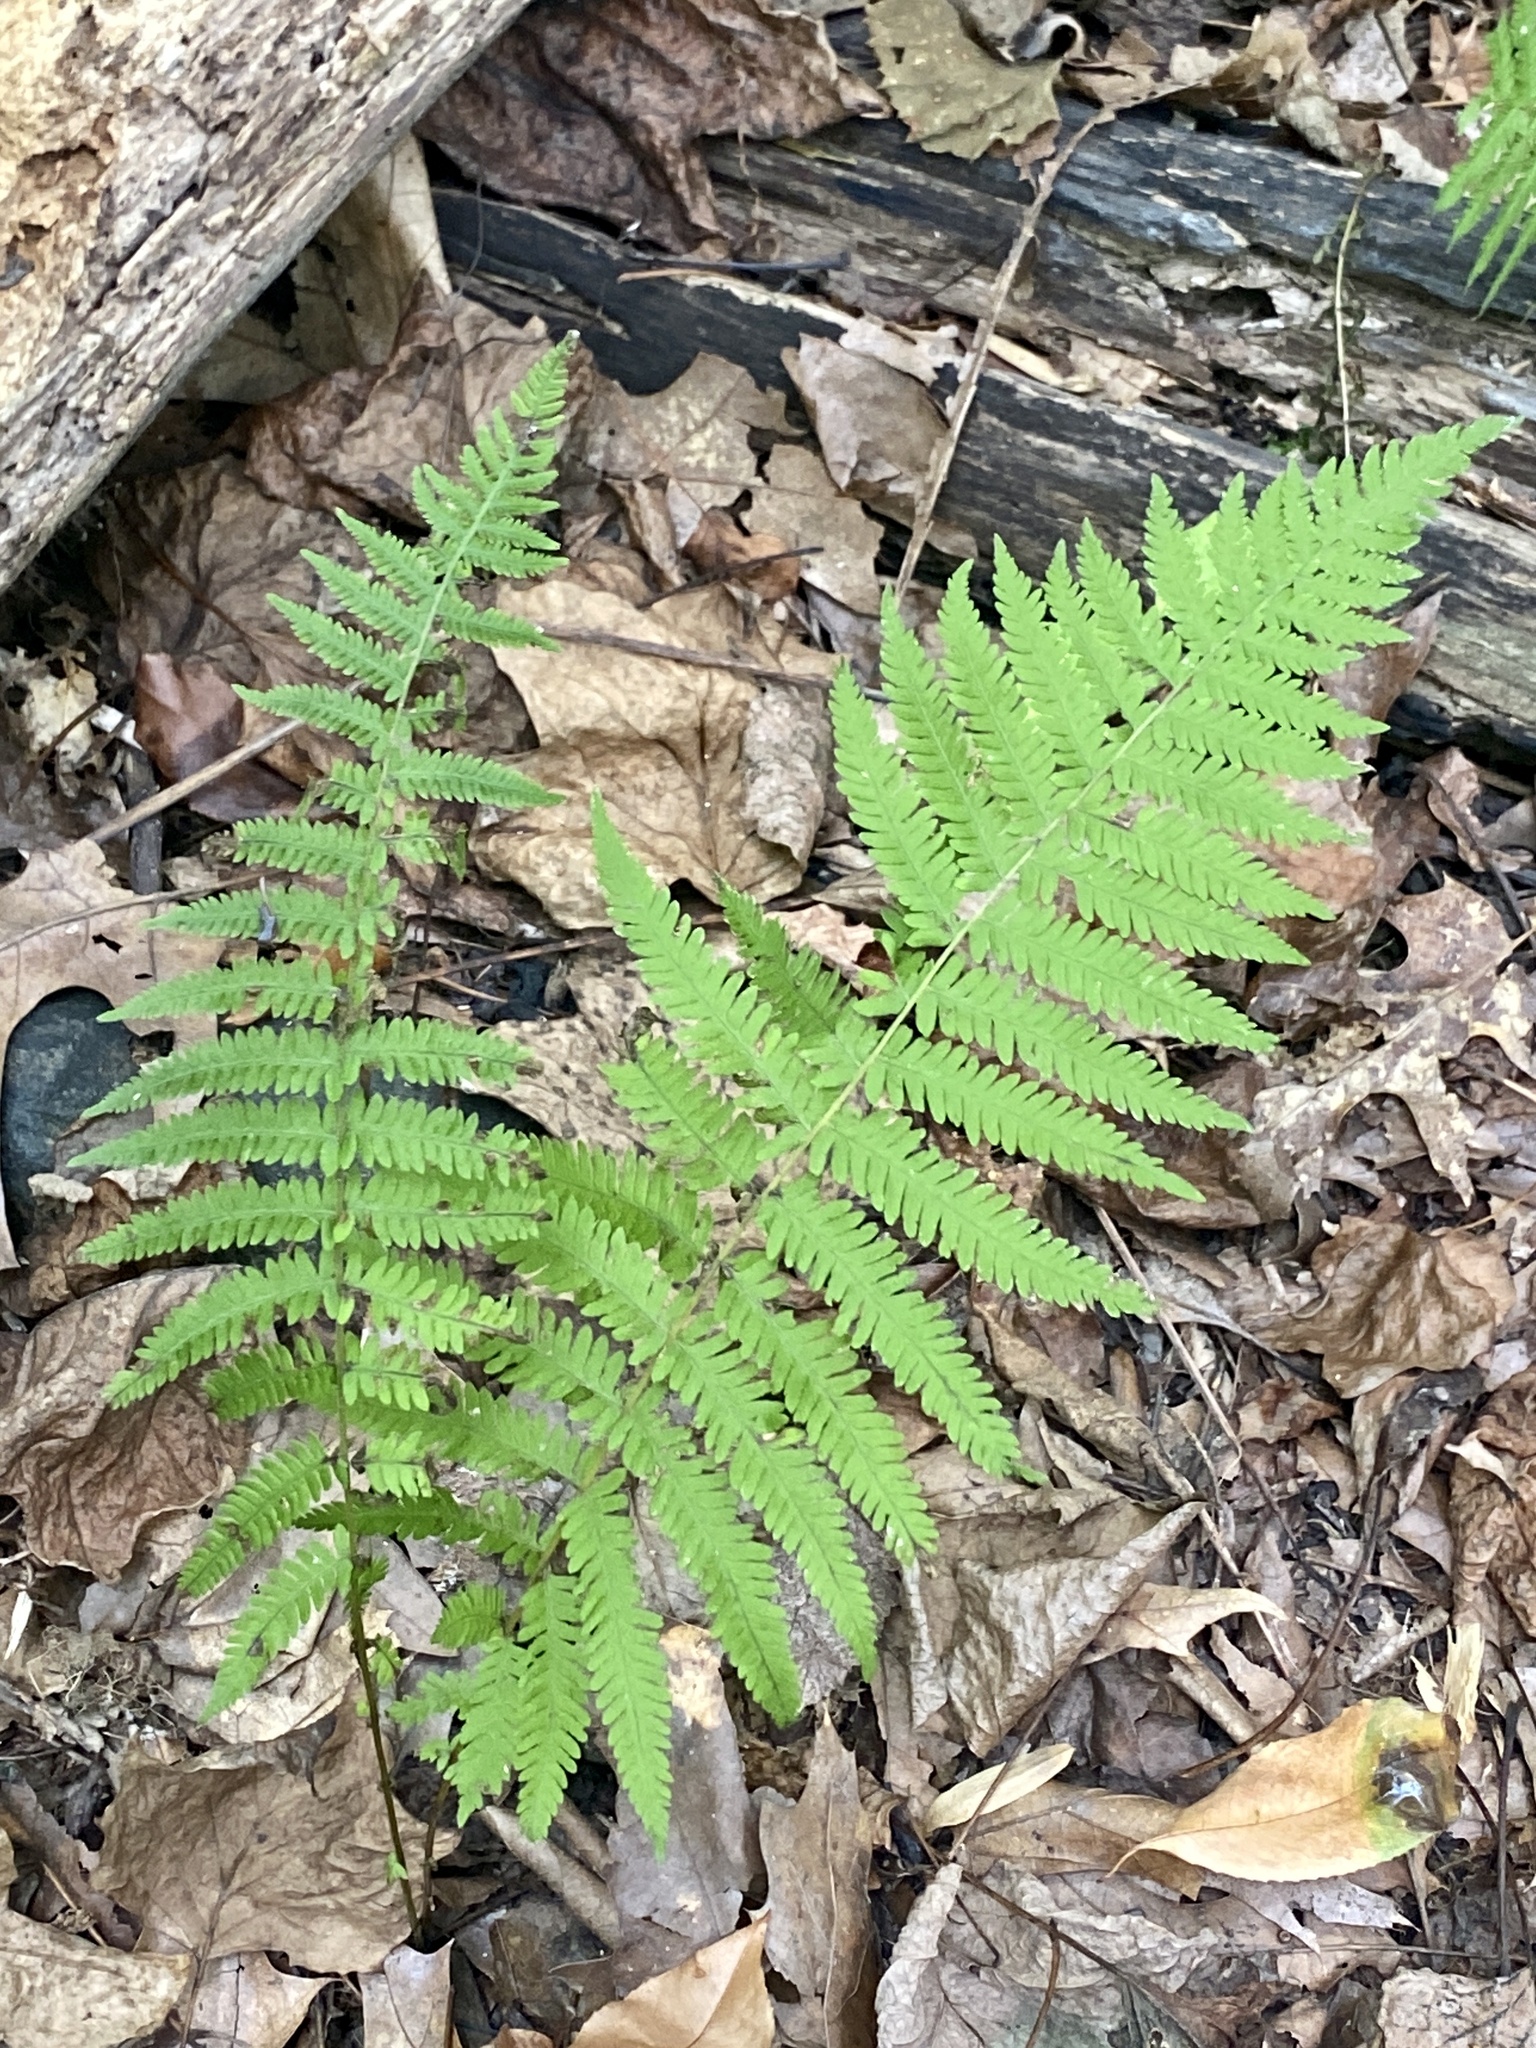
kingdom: Plantae
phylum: Tracheophyta
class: Polypodiopsida
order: Polypodiales
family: Thelypteridaceae
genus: Amauropelta
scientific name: Amauropelta noveboracensis
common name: New york fern
